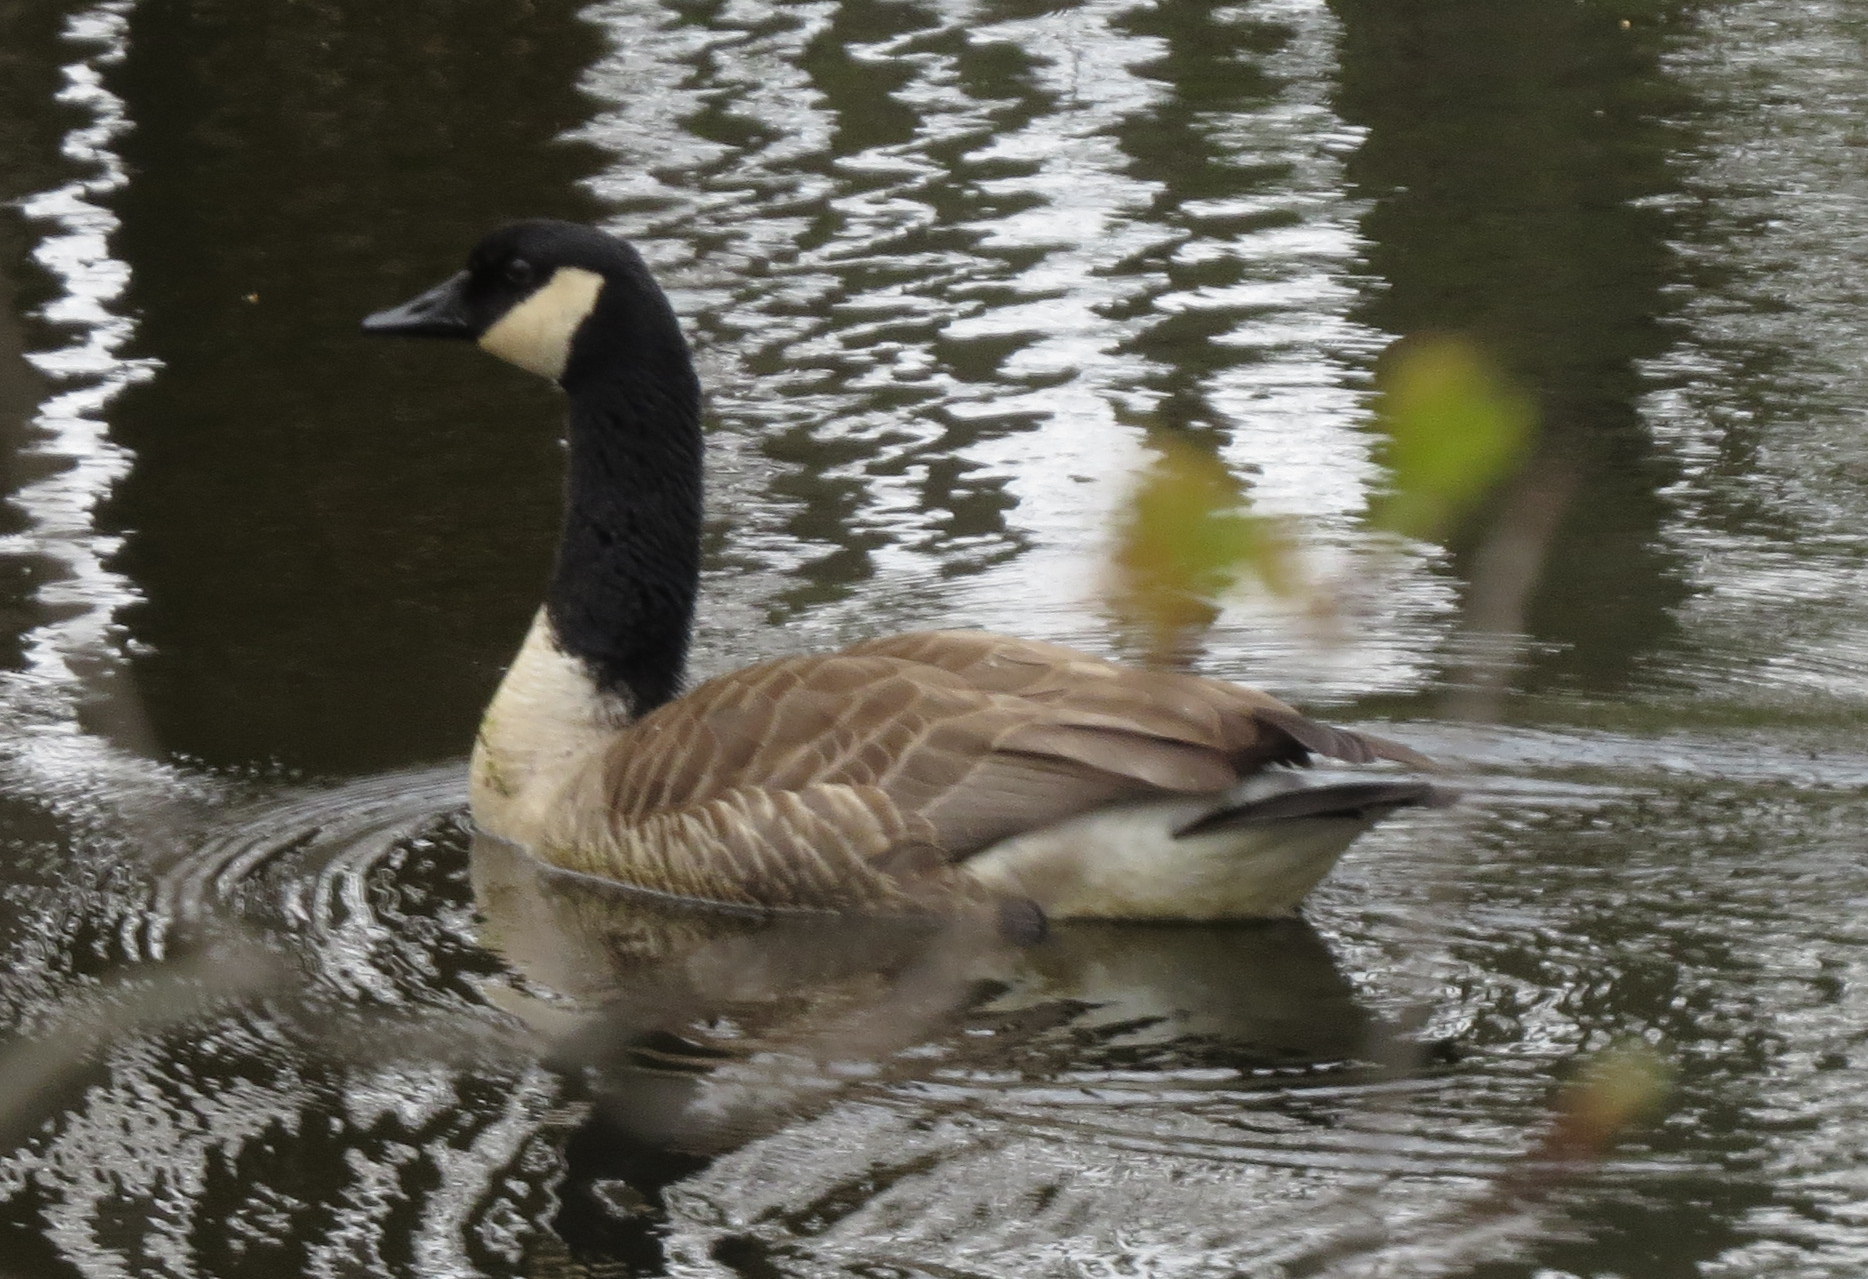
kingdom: Animalia
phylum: Chordata
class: Aves
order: Anseriformes
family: Anatidae
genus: Branta
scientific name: Branta canadensis
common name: Canada goose
